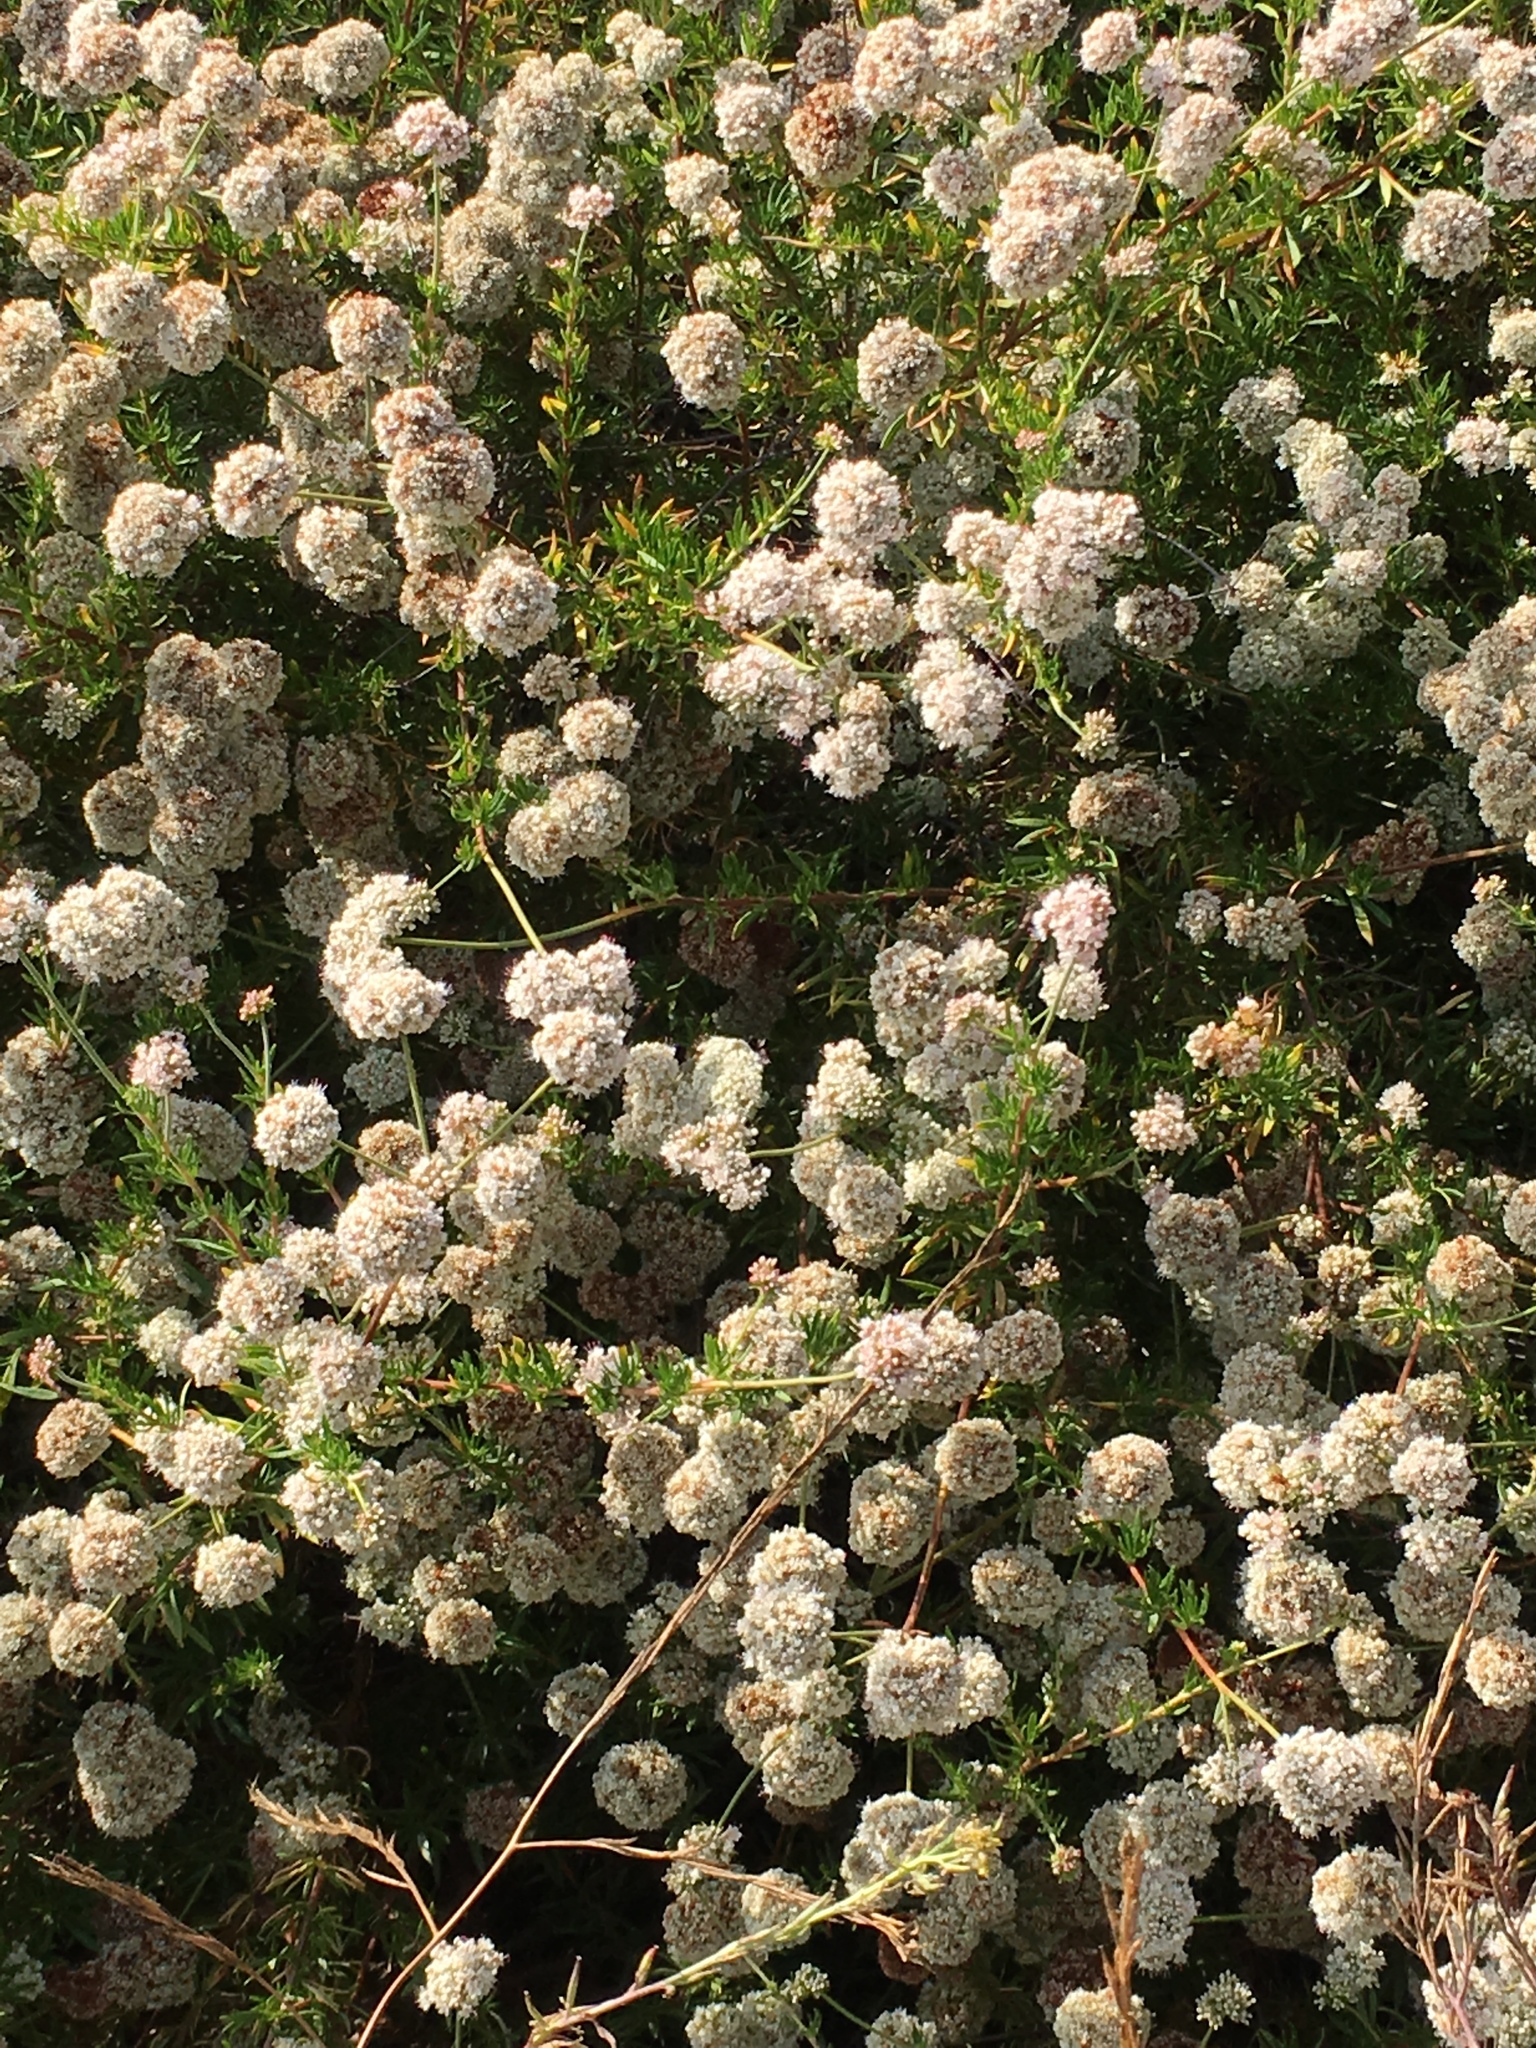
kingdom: Plantae
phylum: Tracheophyta
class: Magnoliopsida
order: Caryophyllales
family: Polygonaceae
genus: Eriogonum
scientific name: Eriogonum fasciculatum
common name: California wild buckwheat
